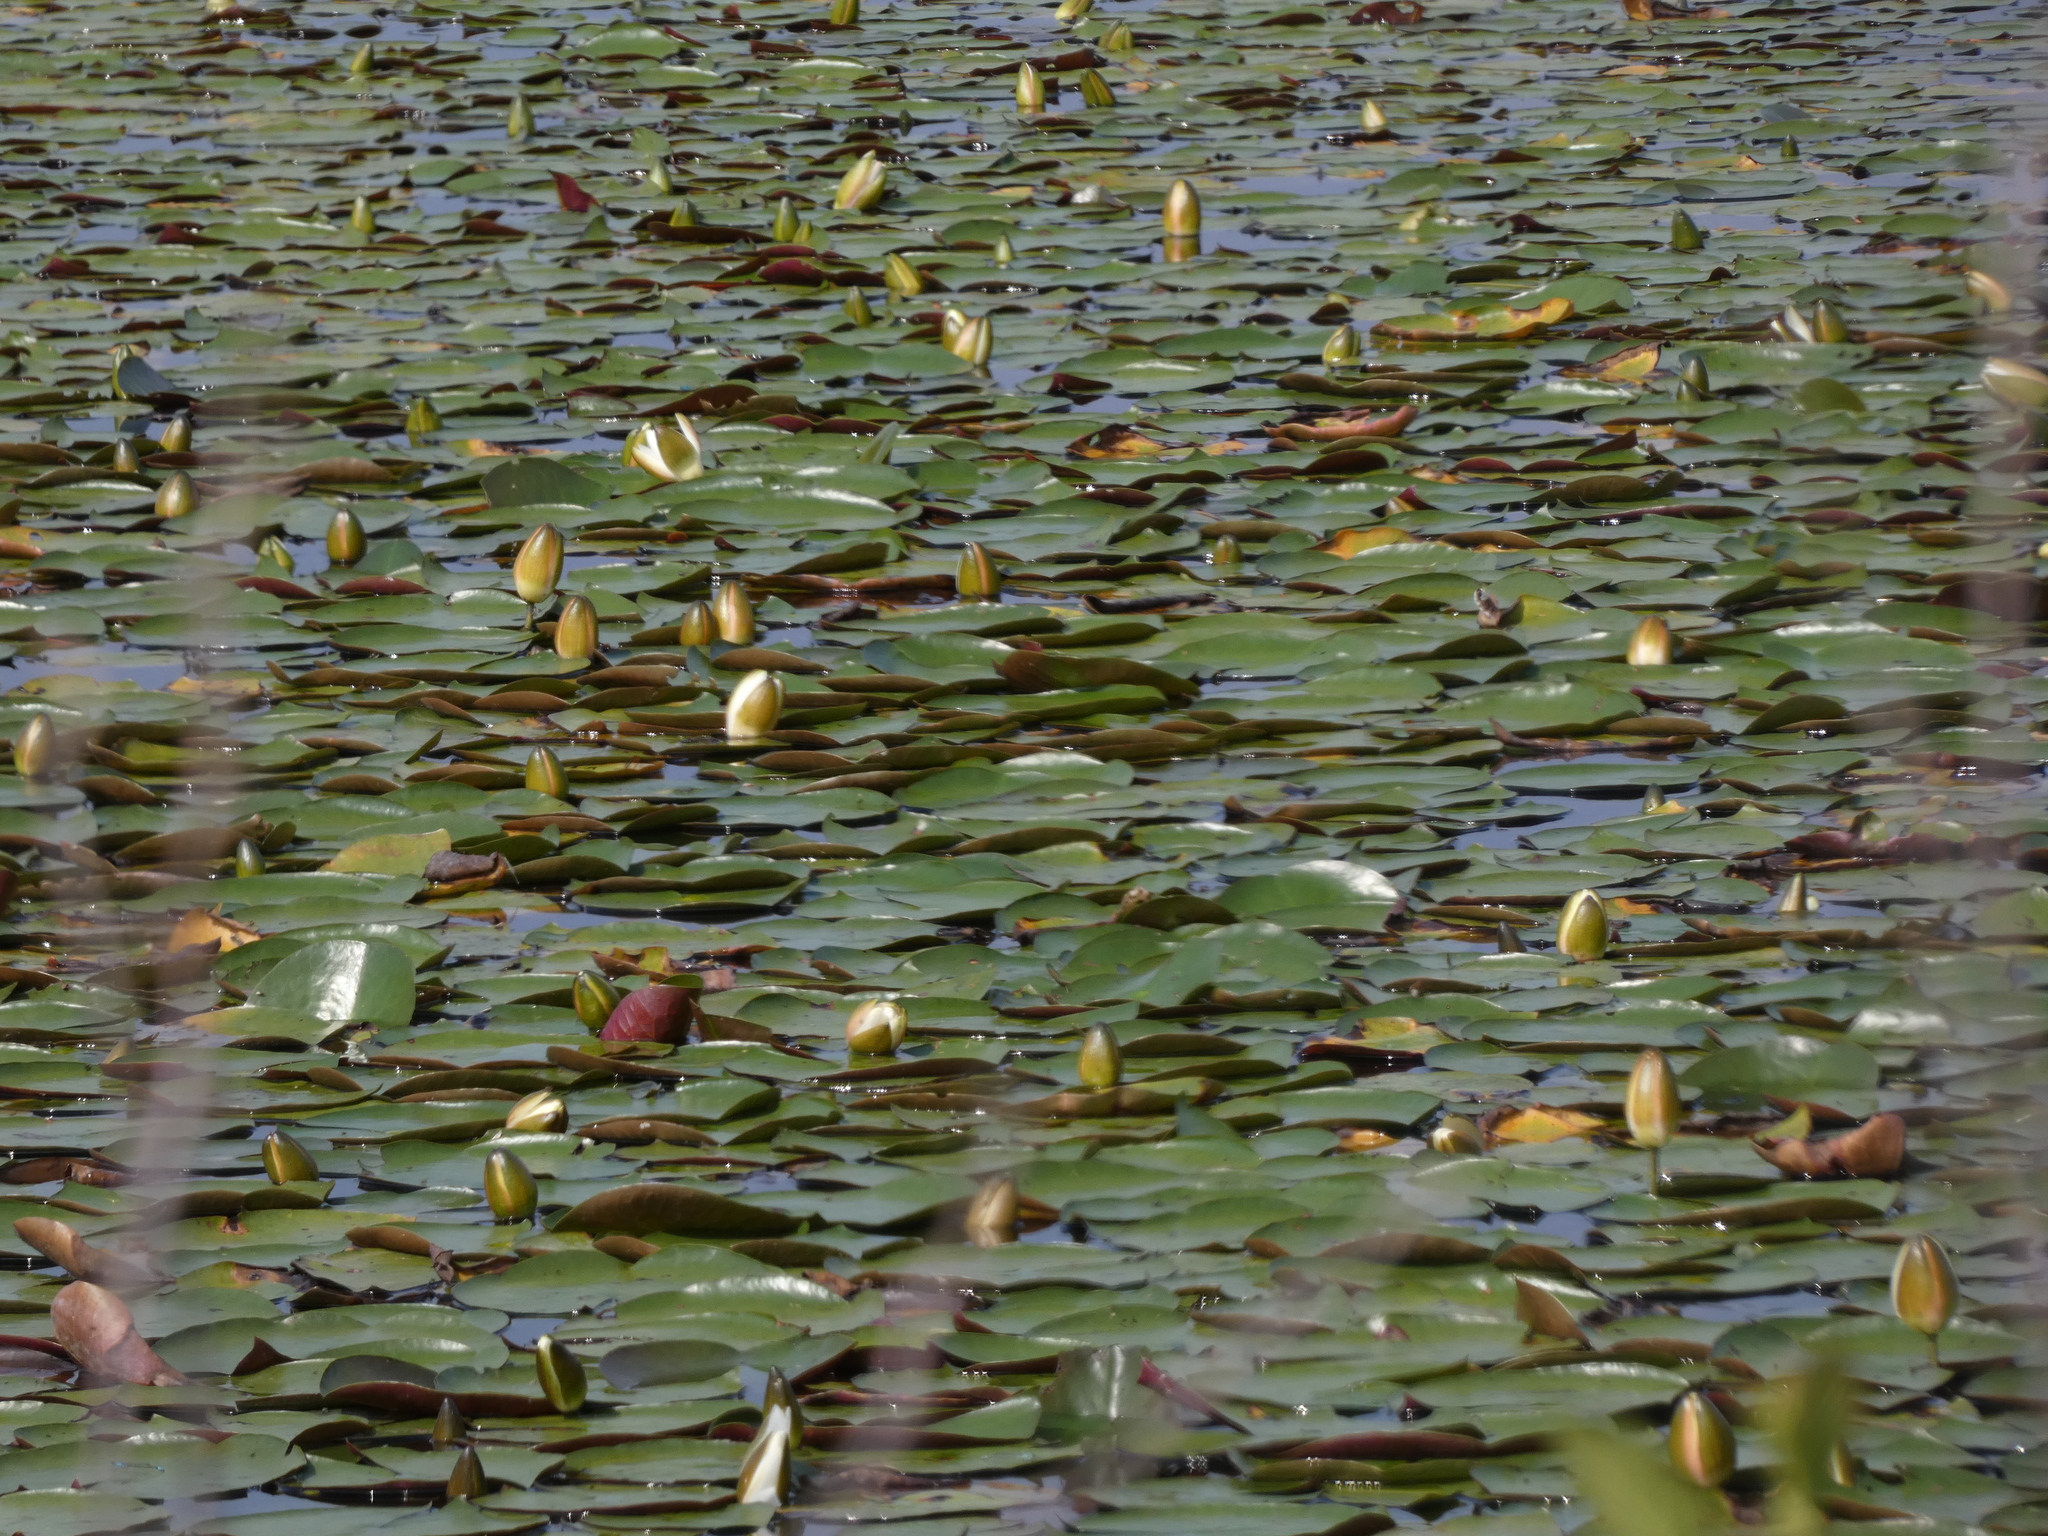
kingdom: Plantae
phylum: Tracheophyta
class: Magnoliopsida
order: Nymphaeales
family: Nymphaeaceae
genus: Nymphaea
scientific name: Nymphaea odorata
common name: Fragrant water-lily
